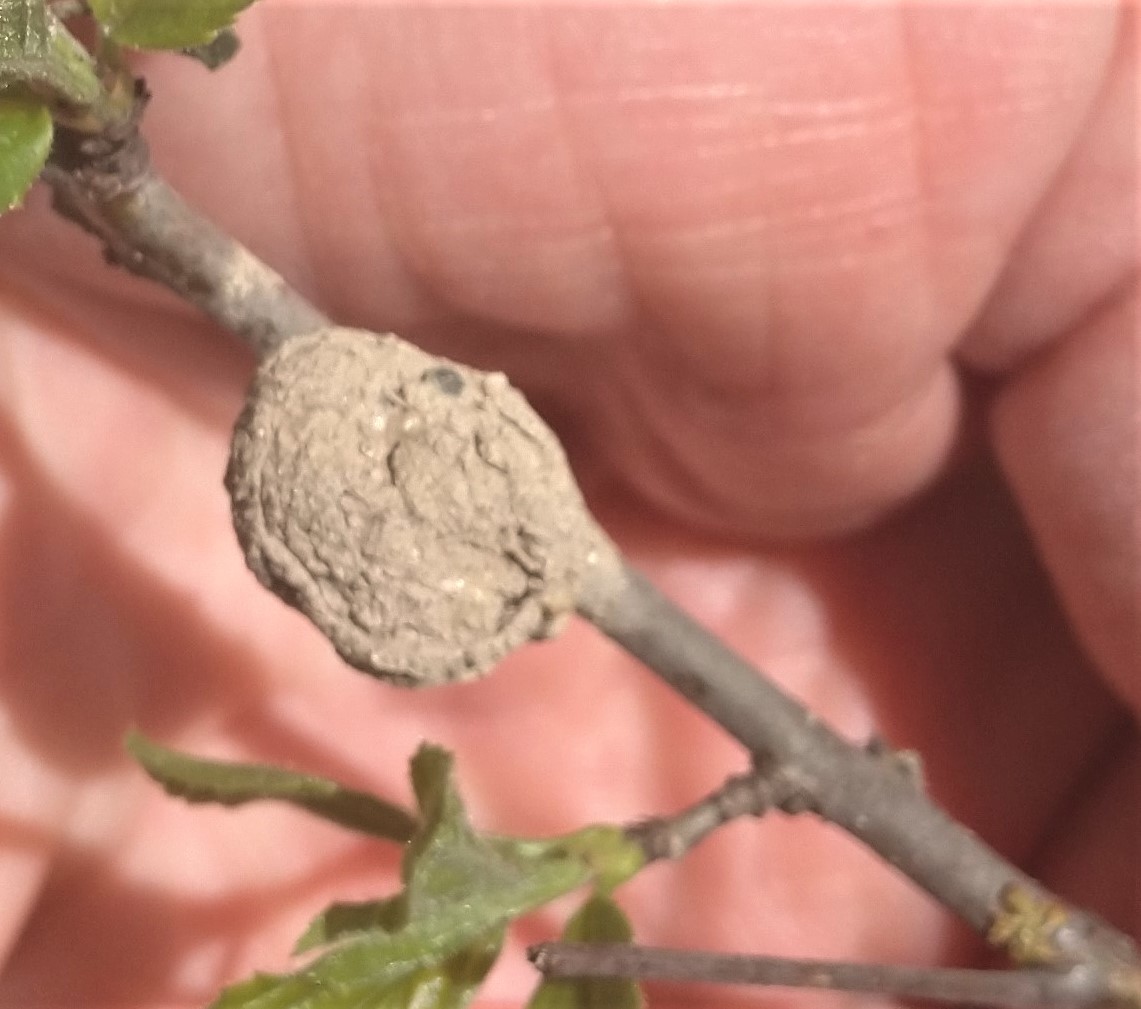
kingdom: Animalia
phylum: Arthropoda
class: Insecta
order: Hymenoptera
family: Eumenidae
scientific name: Eumenidae
